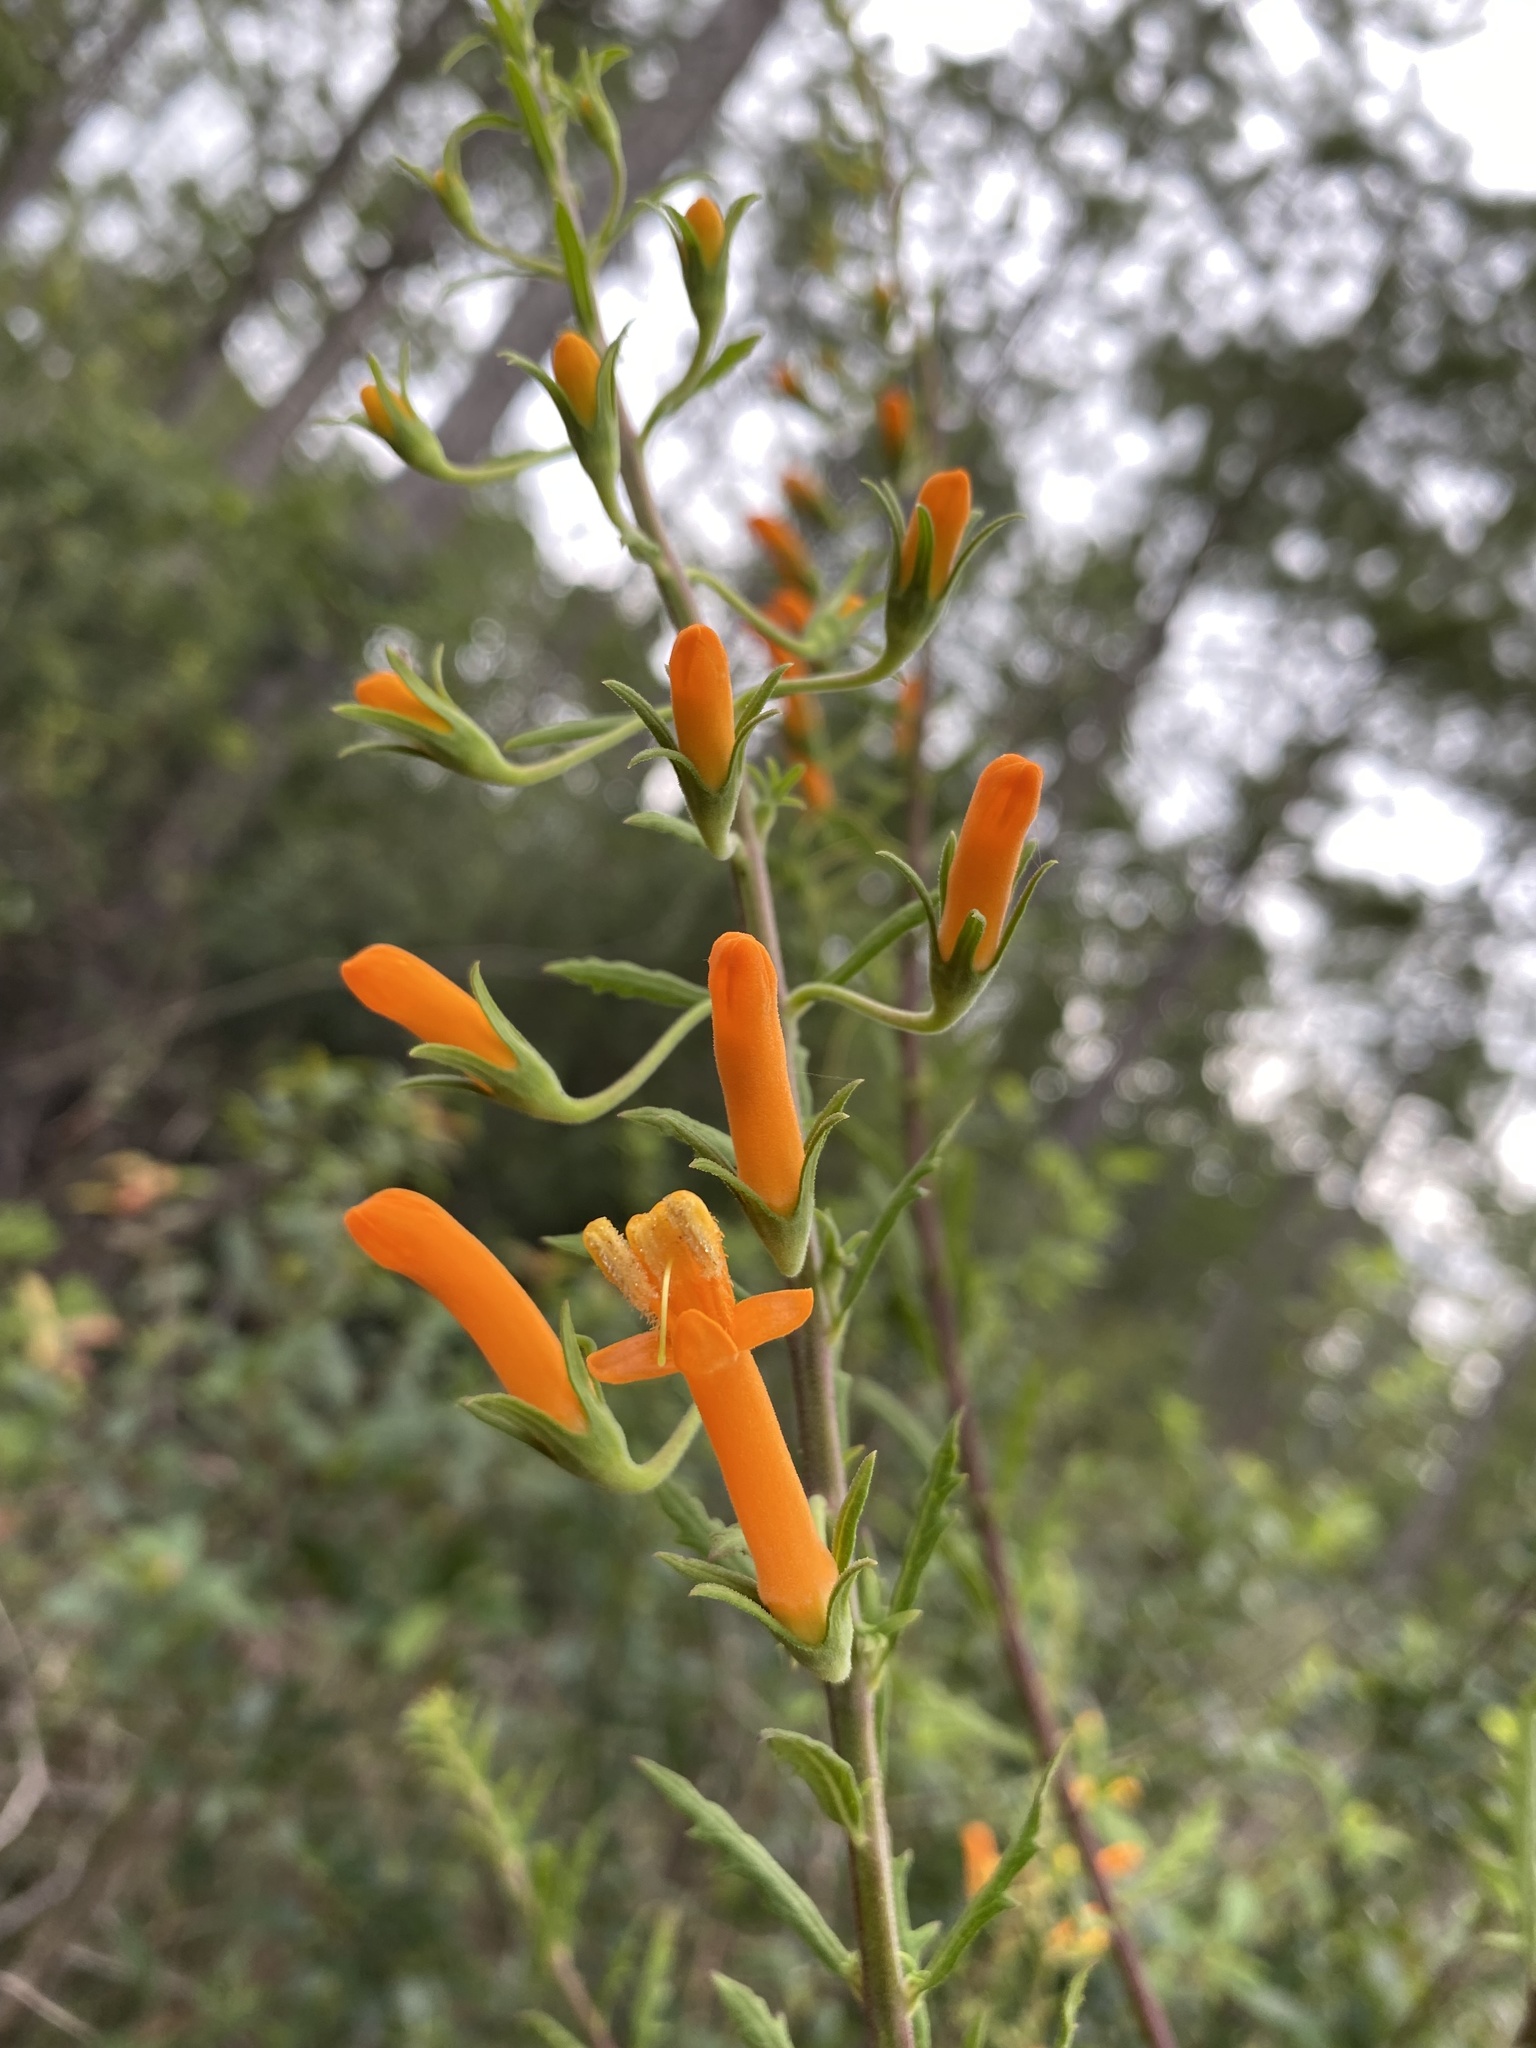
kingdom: Plantae
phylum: Tracheophyta
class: Magnoliopsida
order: Lamiales
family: Orobanchaceae
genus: Macranthera
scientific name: Macranthera flammea
